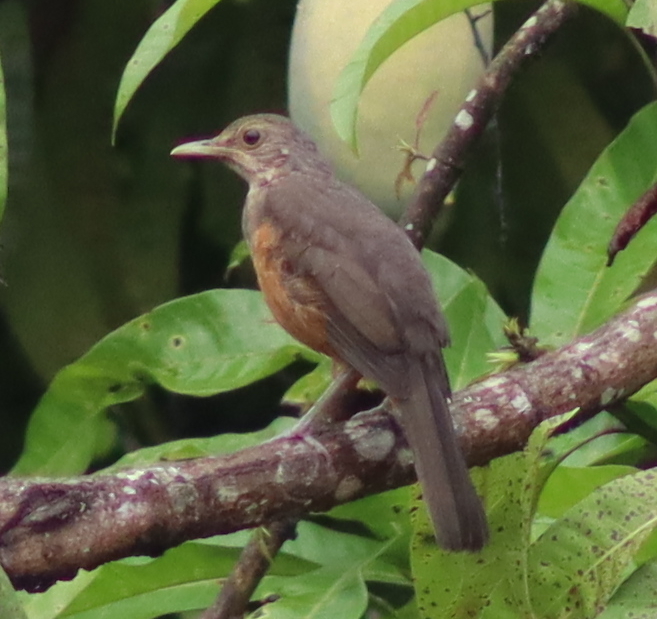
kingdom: Animalia
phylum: Chordata
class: Aves
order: Passeriformes
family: Turdidae
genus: Turdus
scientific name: Turdus rufiventris
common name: Rufous-bellied thrush
